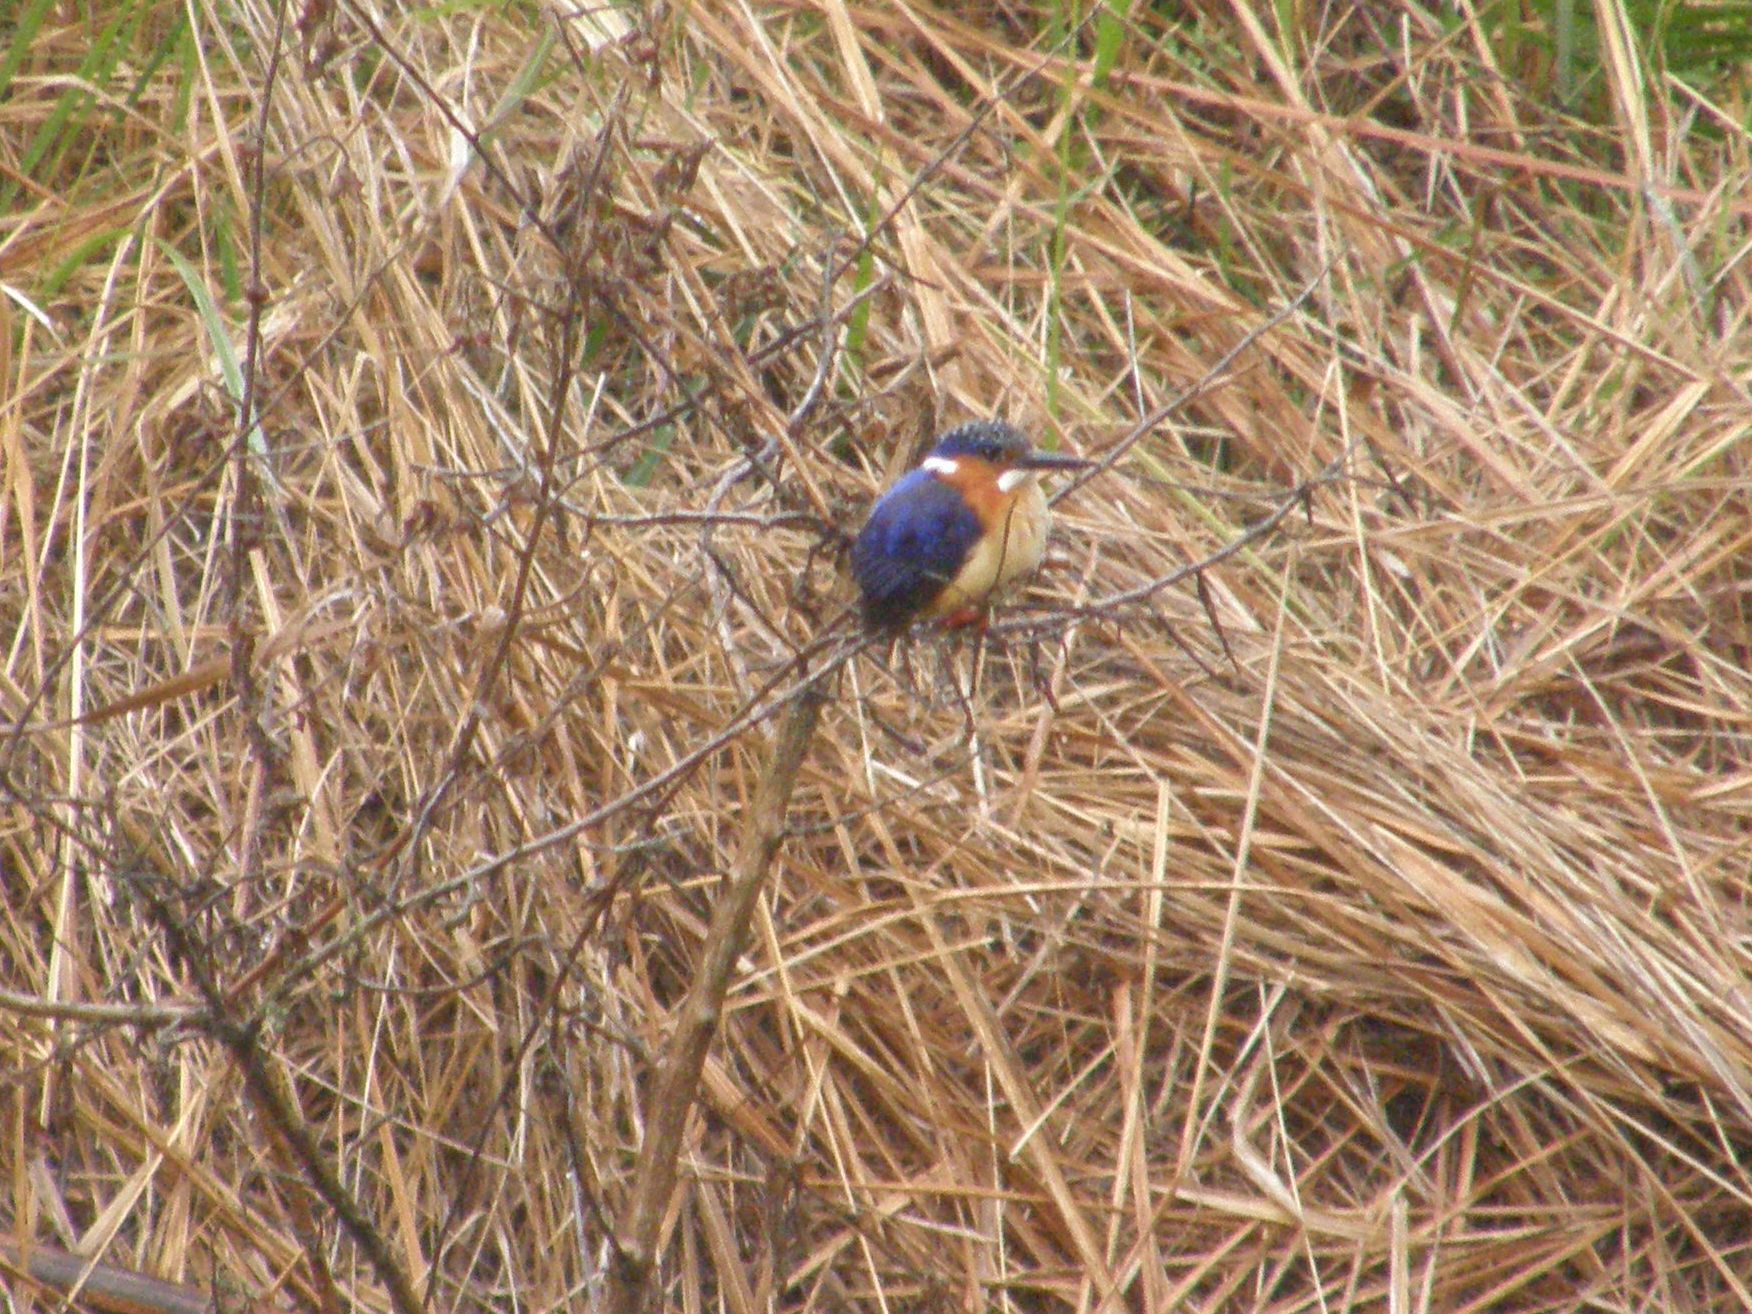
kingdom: Animalia
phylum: Chordata
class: Aves
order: Coraciiformes
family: Alcedinidae
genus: Corythornis
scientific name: Corythornis vintsioides
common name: Malagasy kingfisher
